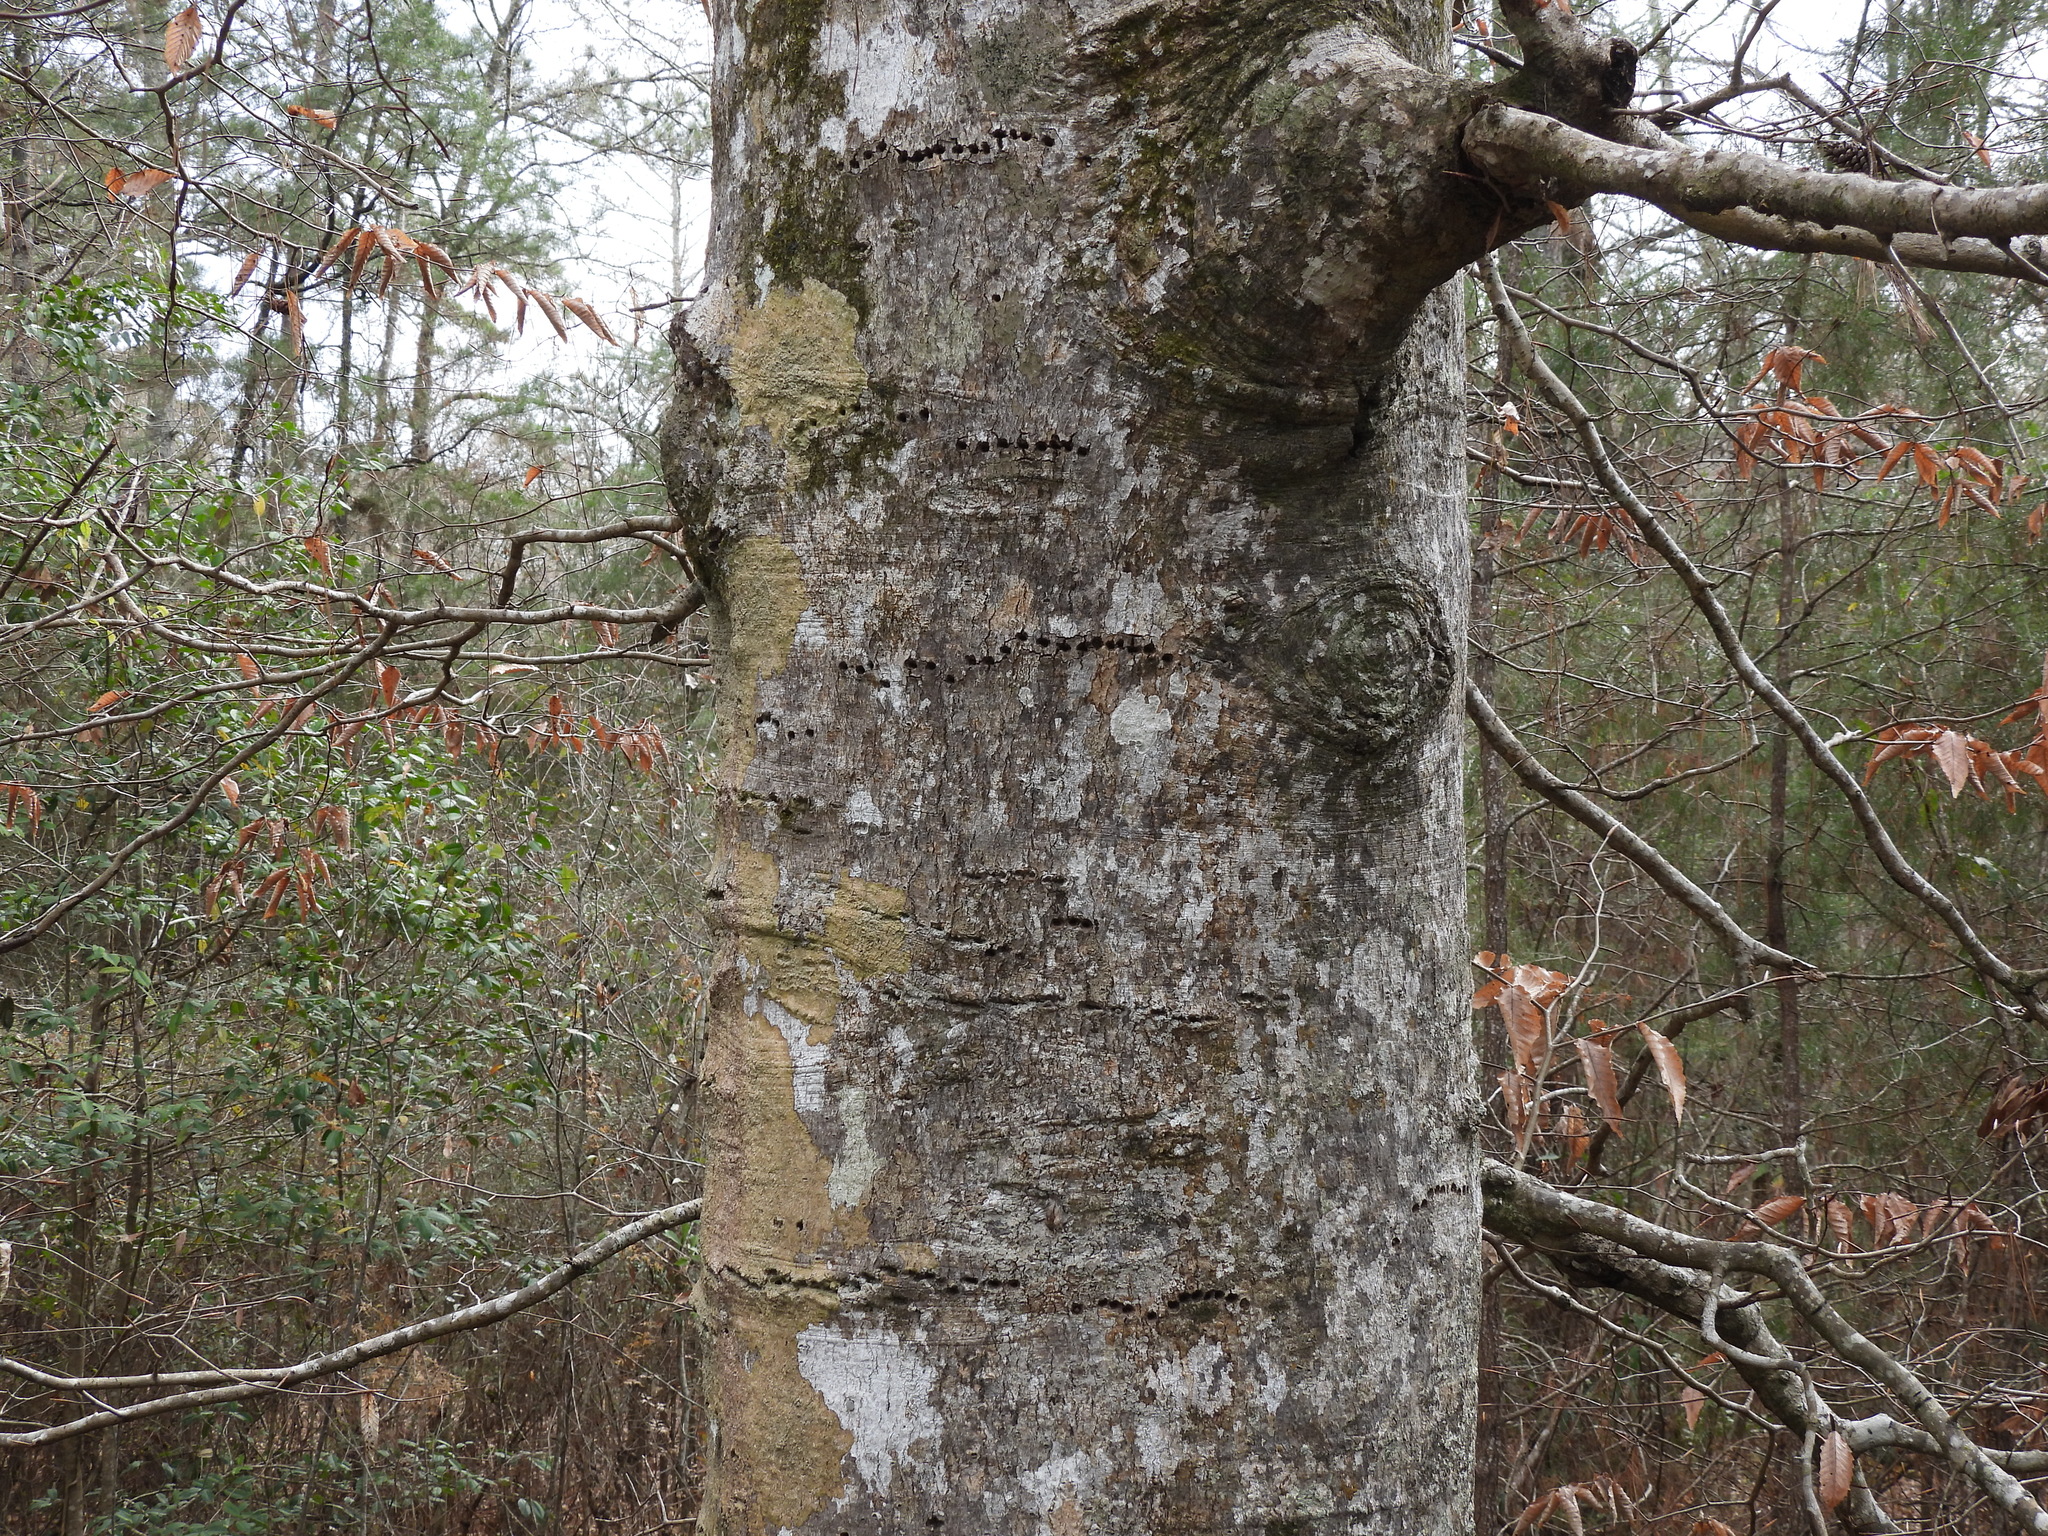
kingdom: Animalia
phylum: Chordata
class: Aves
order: Piciformes
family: Picidae
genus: Sphyrapicus
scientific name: Sphyrapicus varius
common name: Yellow-bellied sapsucker
